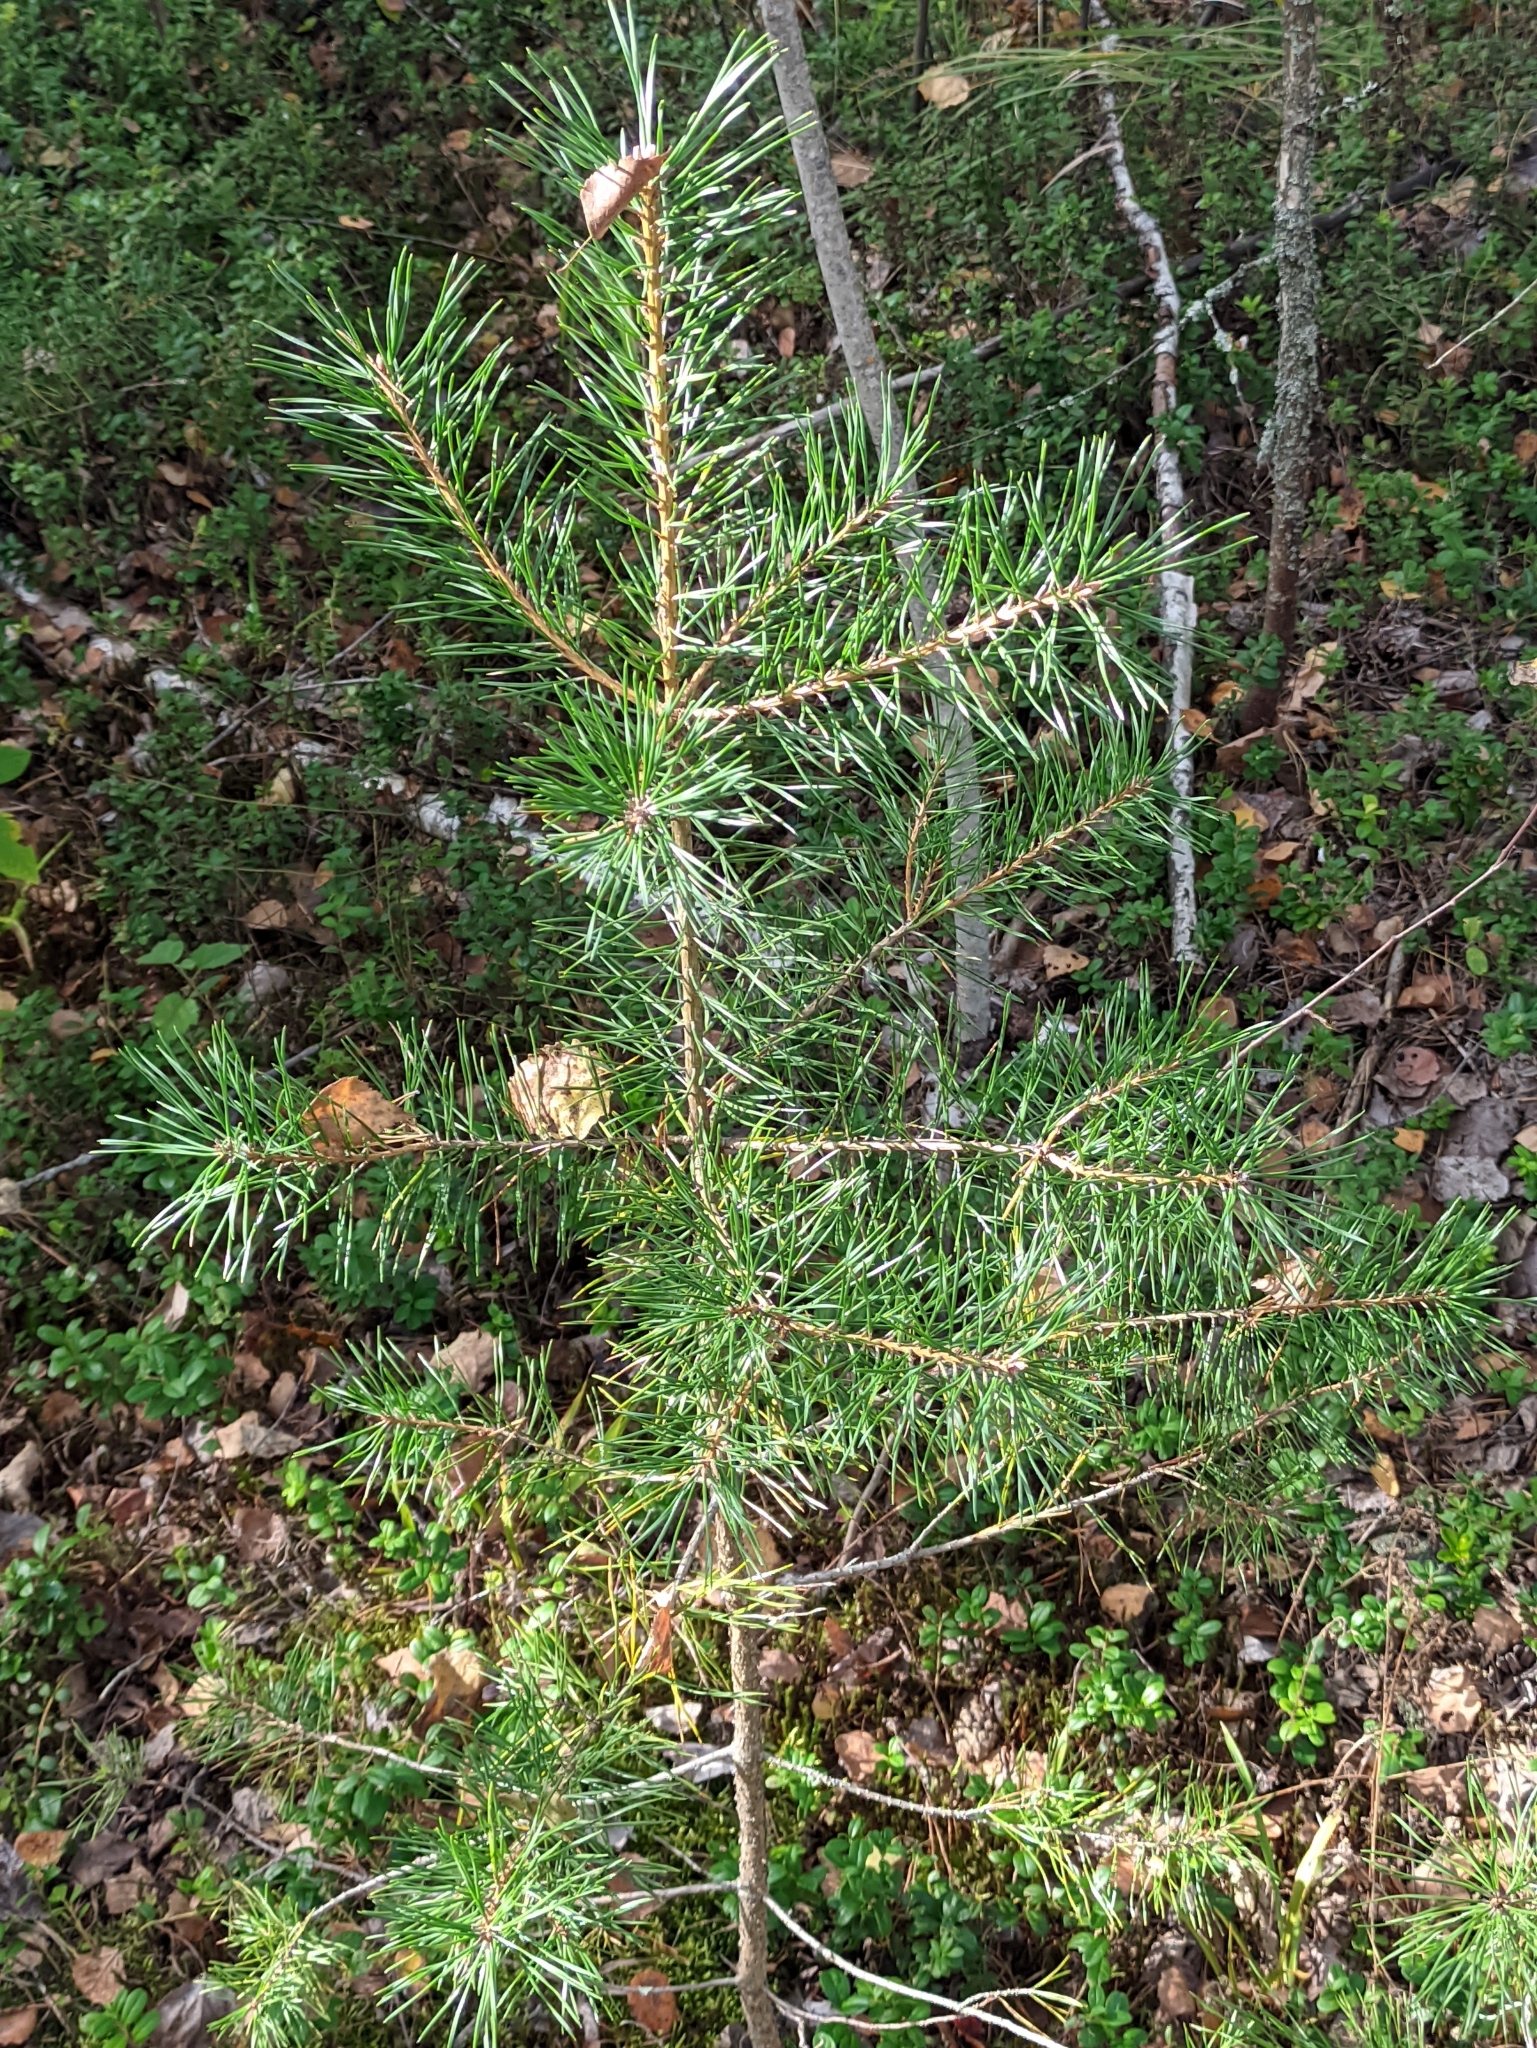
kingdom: Plantae
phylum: Tracheophyta
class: Pinopsida
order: Pinales
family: Pinaceae
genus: Pinus
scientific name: Pinus sylvestris
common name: Scots pine
